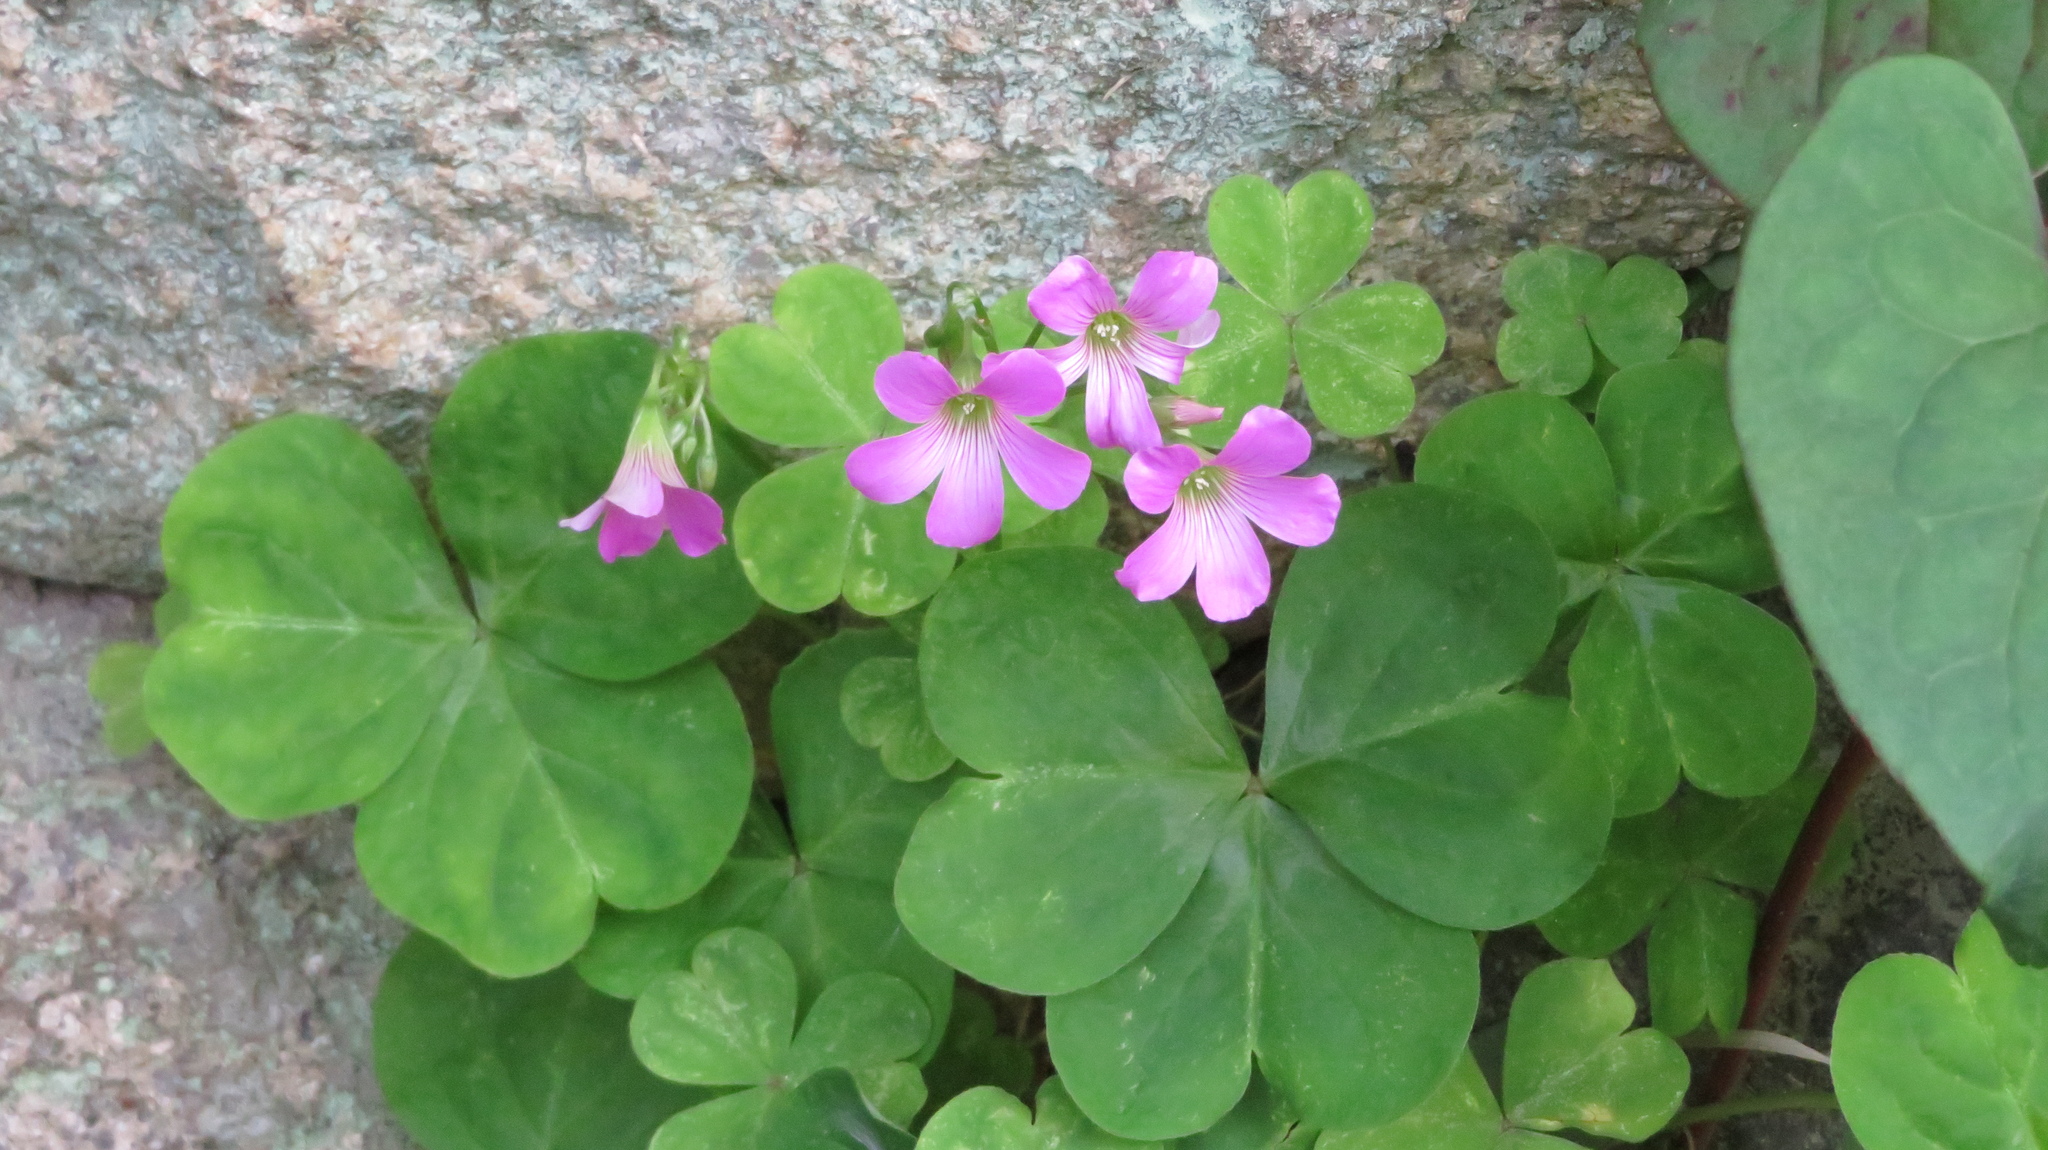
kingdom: Plantae
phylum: Tracheophyta
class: Magnoliopsida
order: Oxalidales
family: Oxalidaceae
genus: Oxalis
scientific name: Oxalis debilis
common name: Large-flowered pink-sorrel
